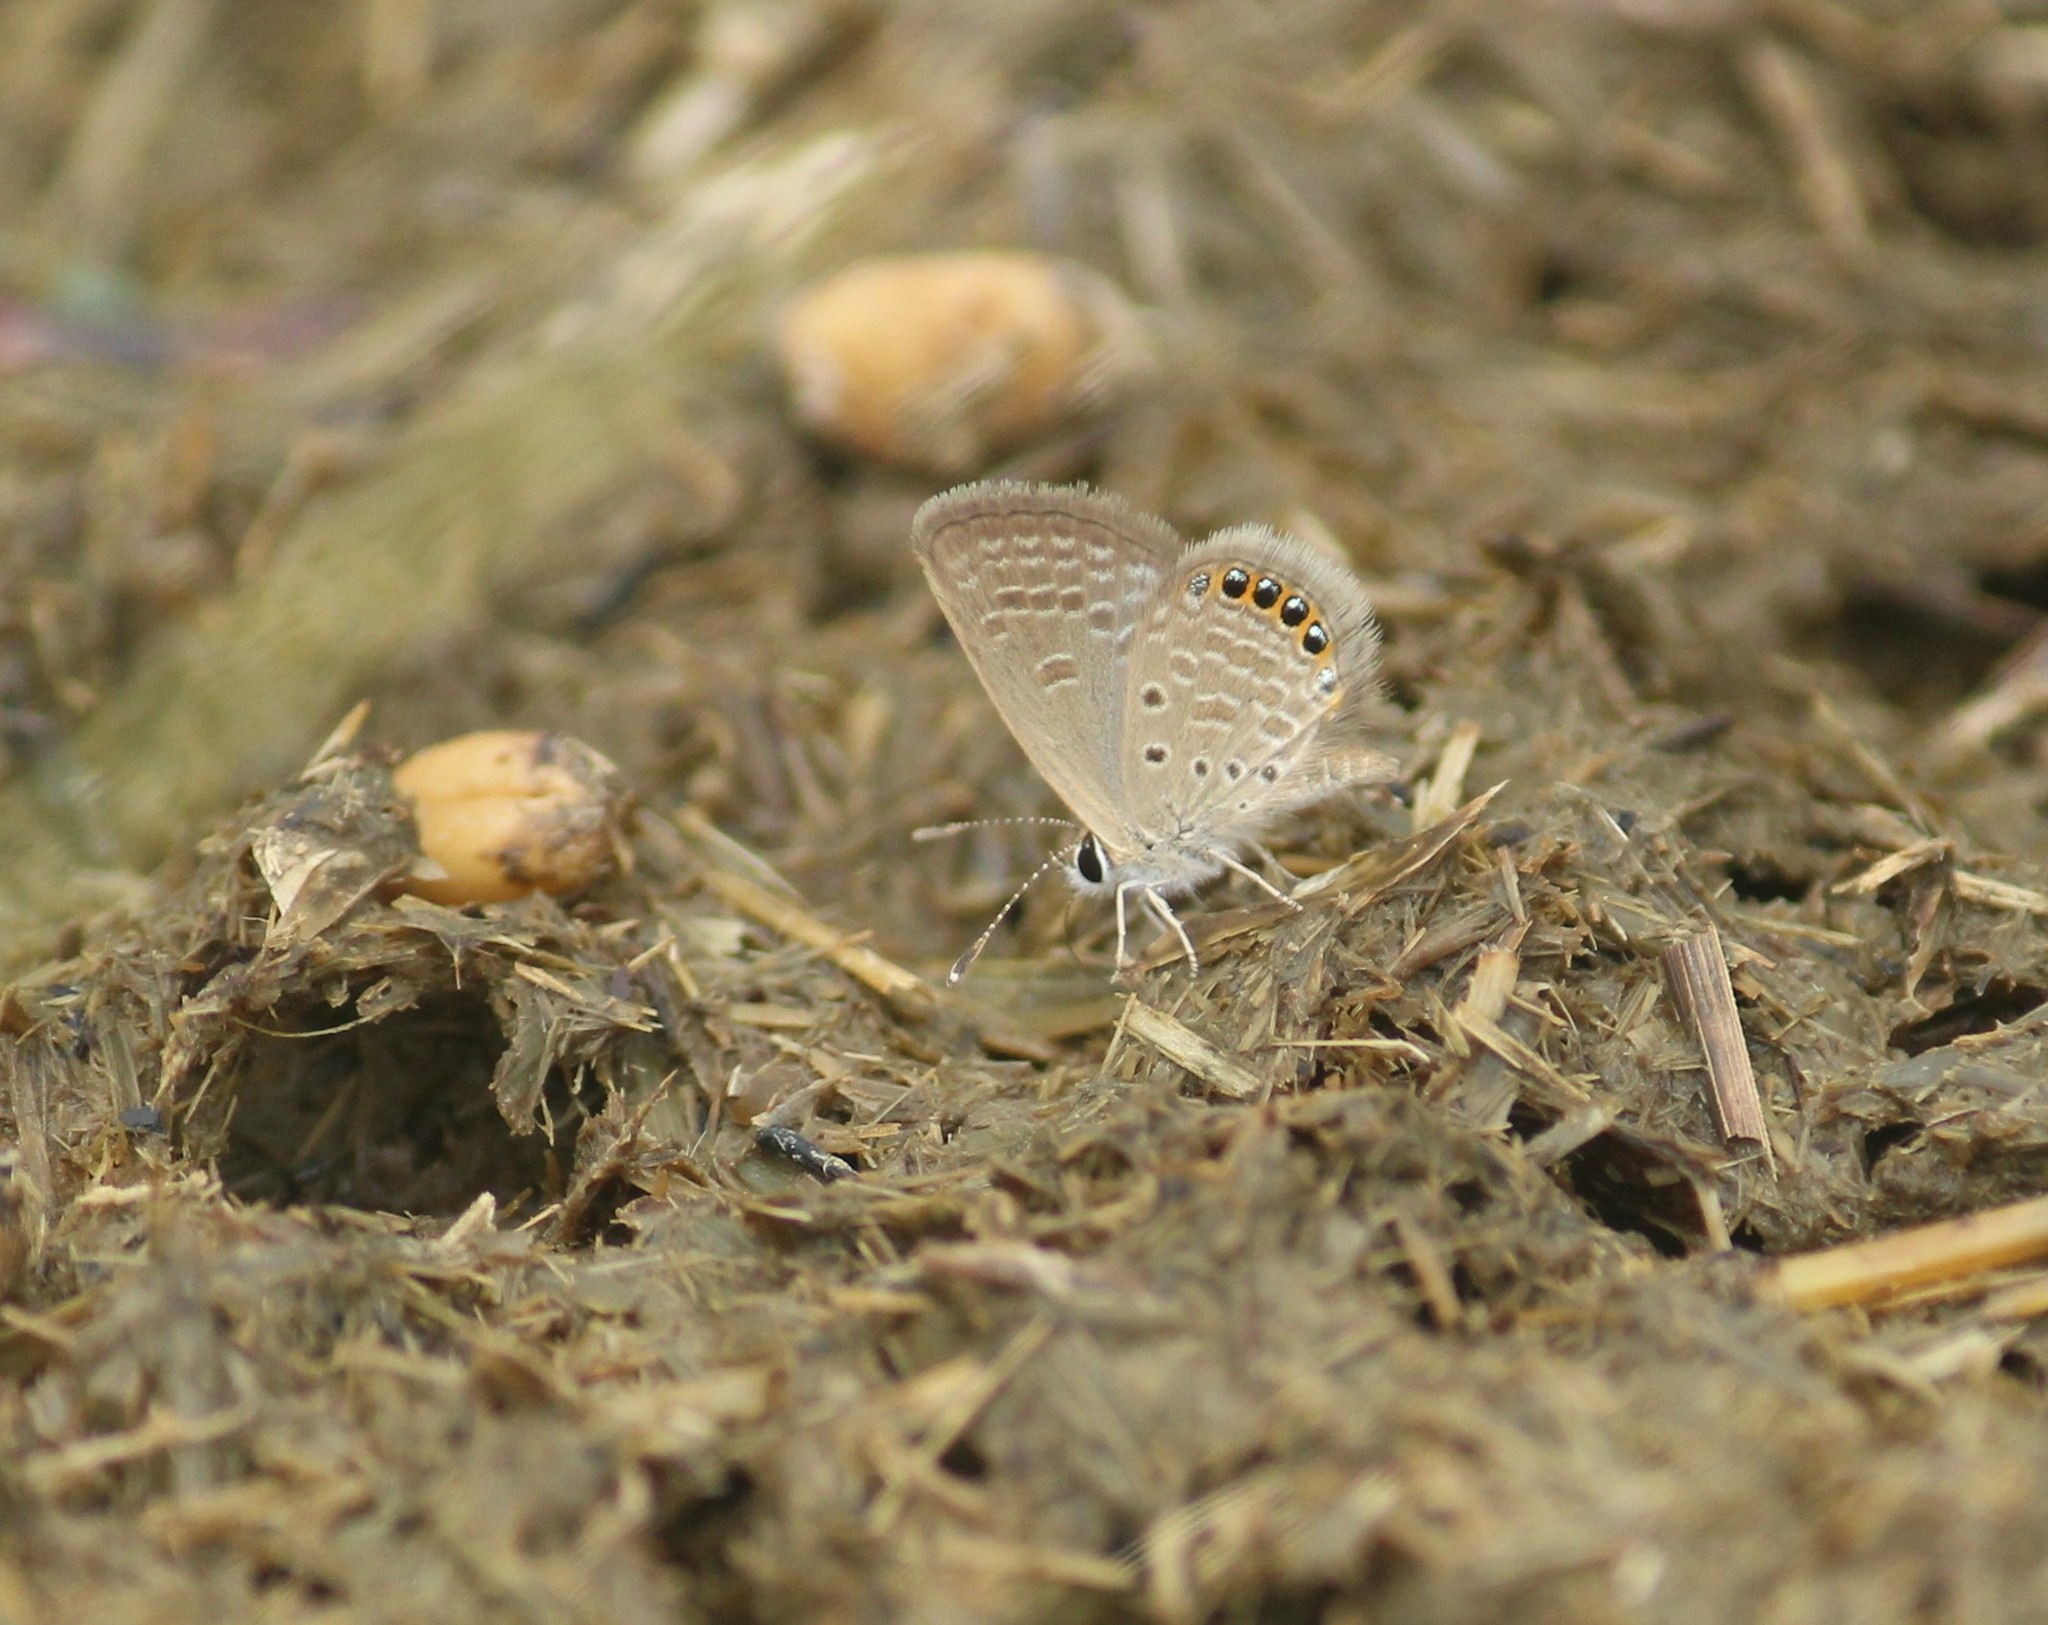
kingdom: Animalia
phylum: Arthropoda
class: Insecta
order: Lepidoptera
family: Lycaenidae
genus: Freyeria
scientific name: Freyeria putli
